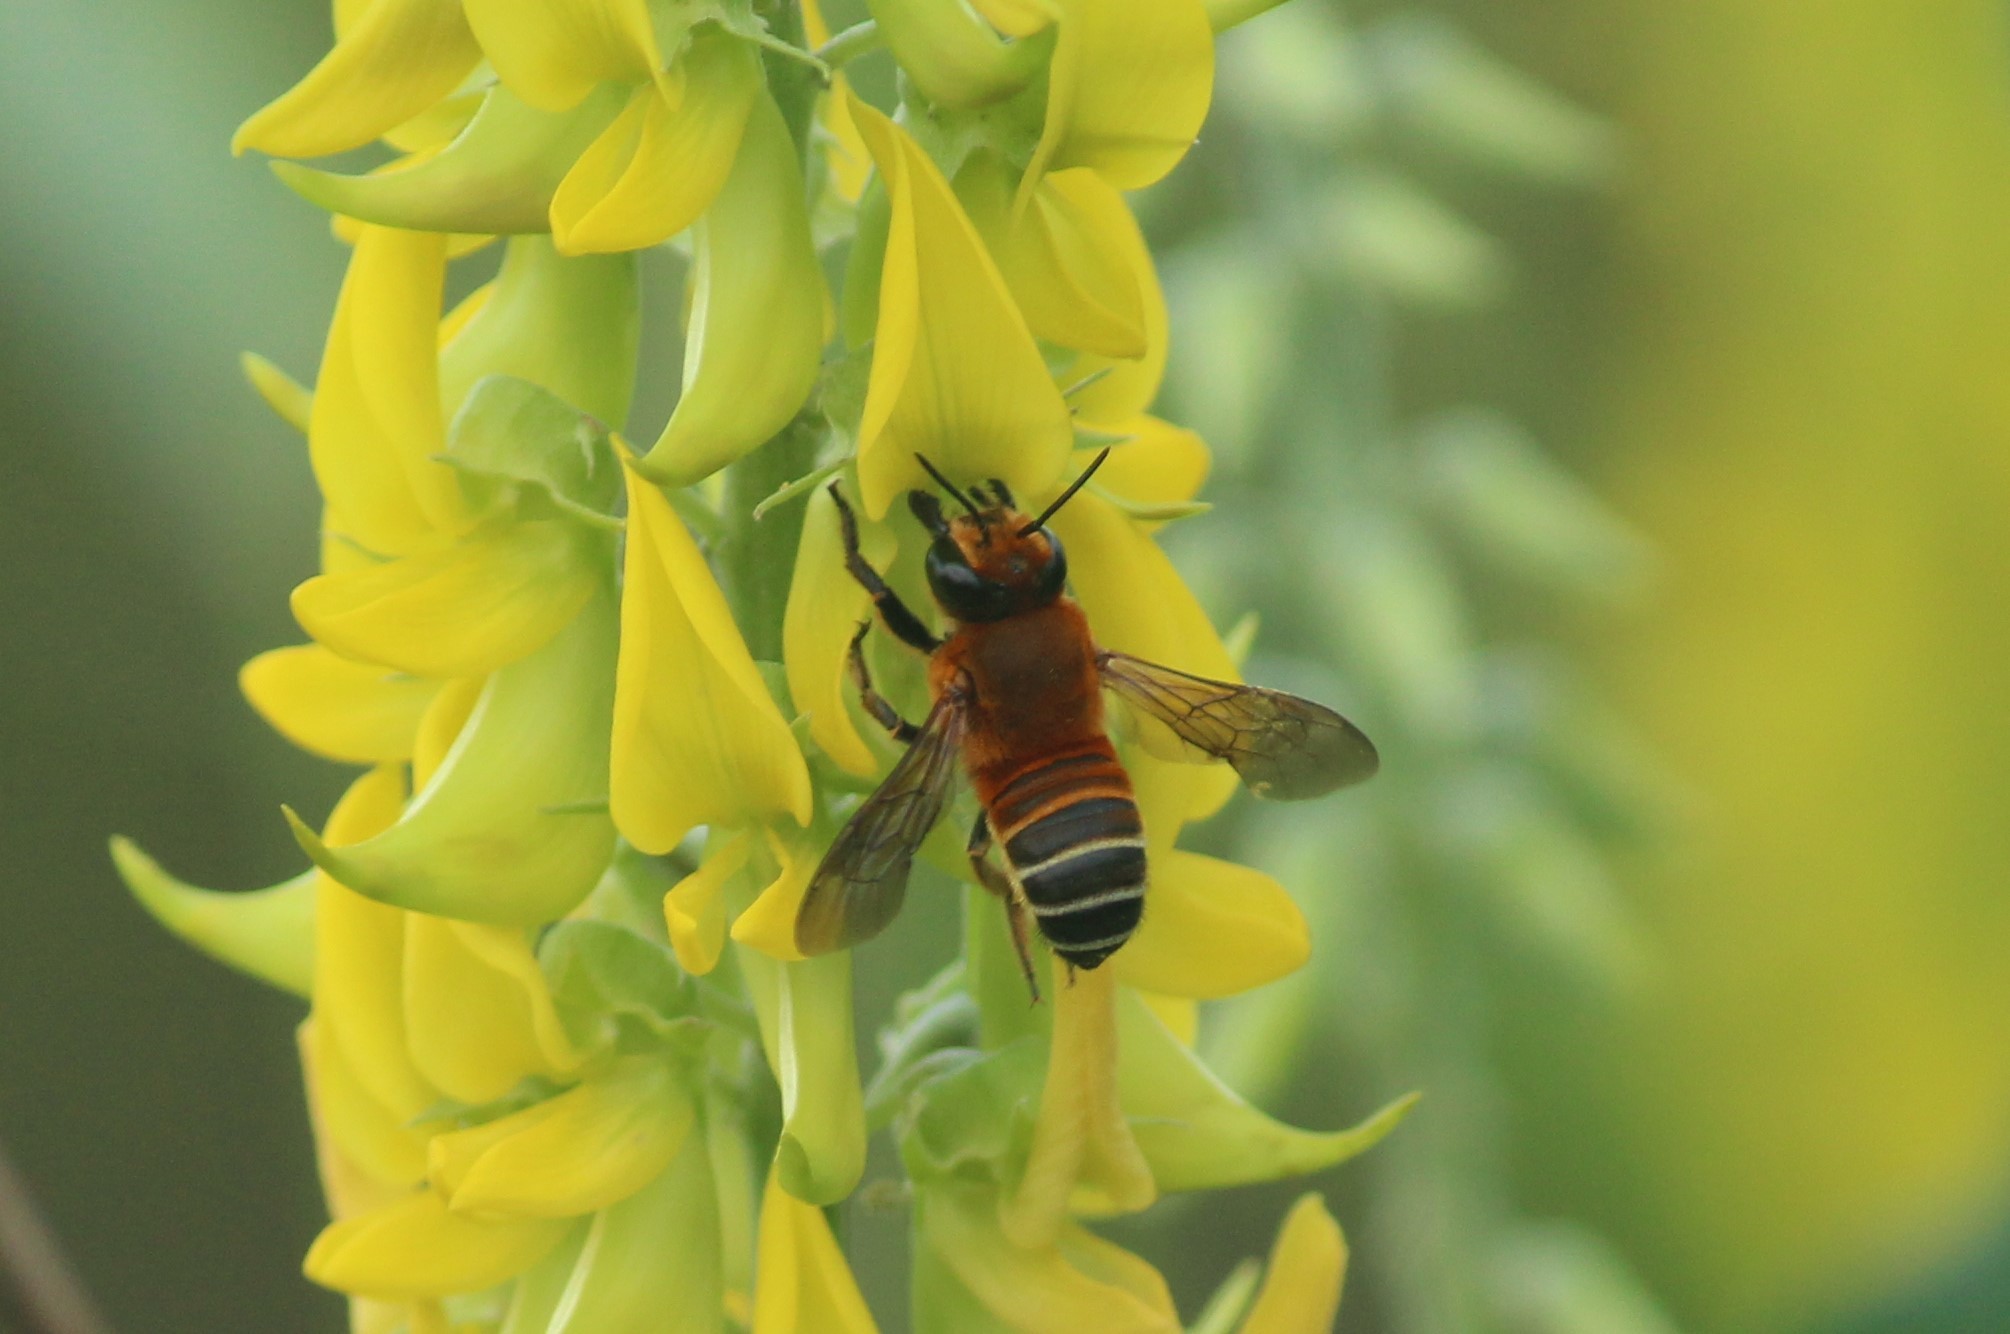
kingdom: Animalia
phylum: Arthropoda
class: Insecta
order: Hymenoptera
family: Megachilidae
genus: Megachile
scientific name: Megachile lanata
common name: Wooly wall bee
